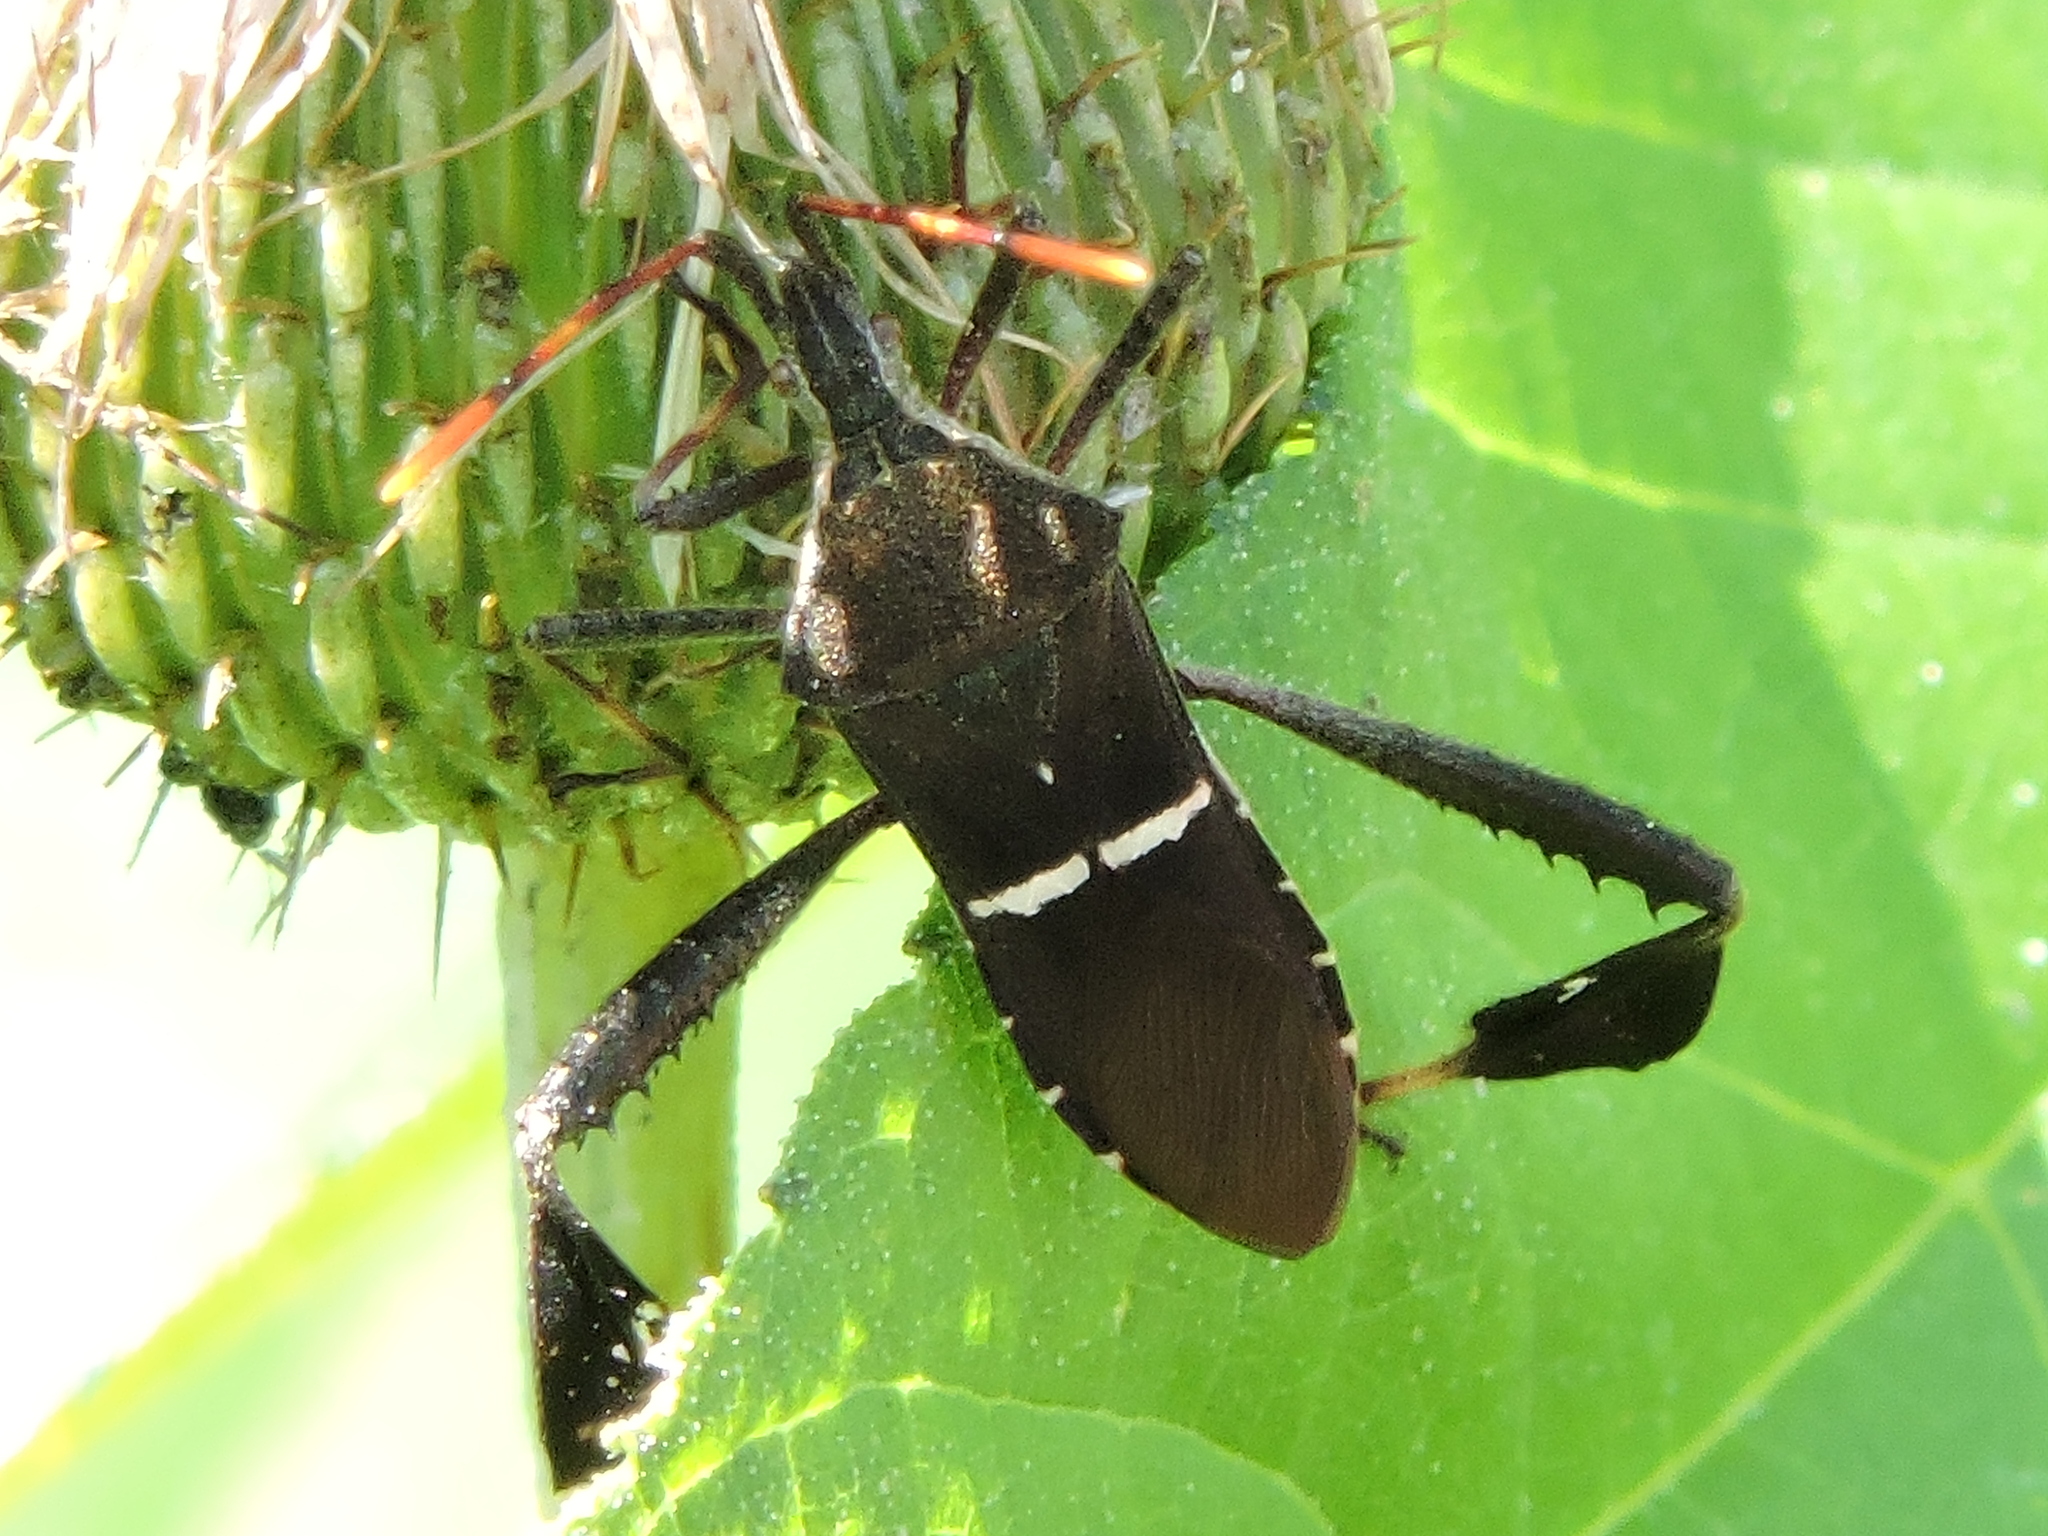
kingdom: Animalia
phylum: Arthropoda
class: Insecta
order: Hemiptera
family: Coreidae
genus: Leptoglossus
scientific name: Leptoglossus phyllopus
